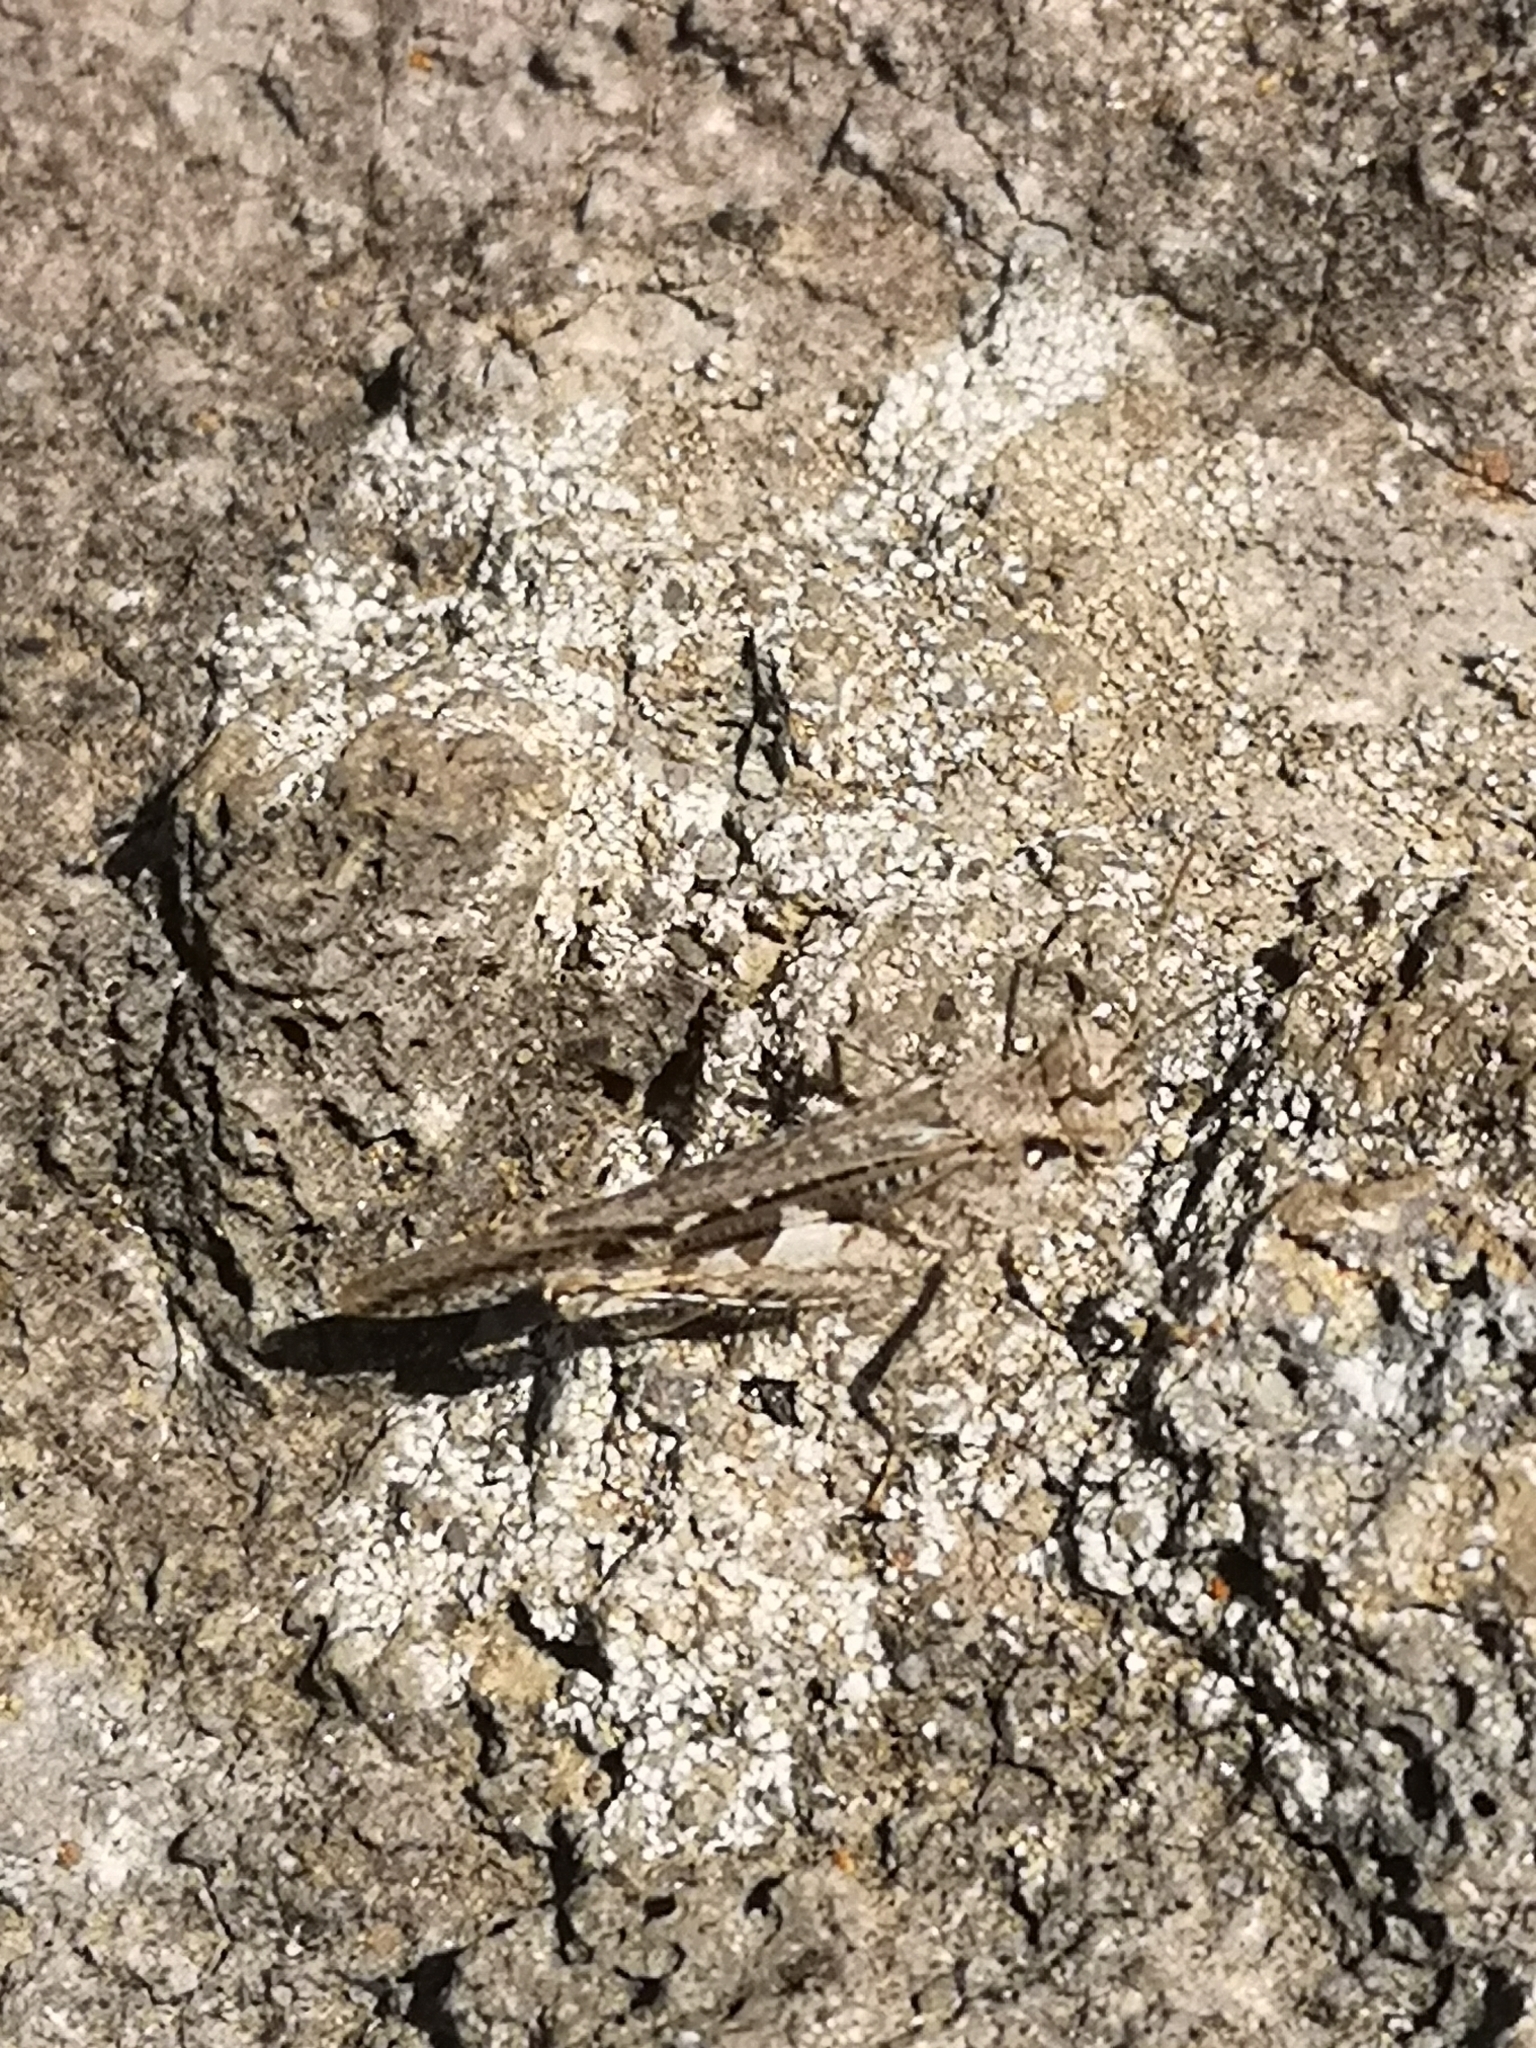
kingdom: Animalia
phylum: Arthropoda
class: Insecta
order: Orthoptera
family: Acrididae
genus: Acrotylus
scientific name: Acrotylus insubricus
